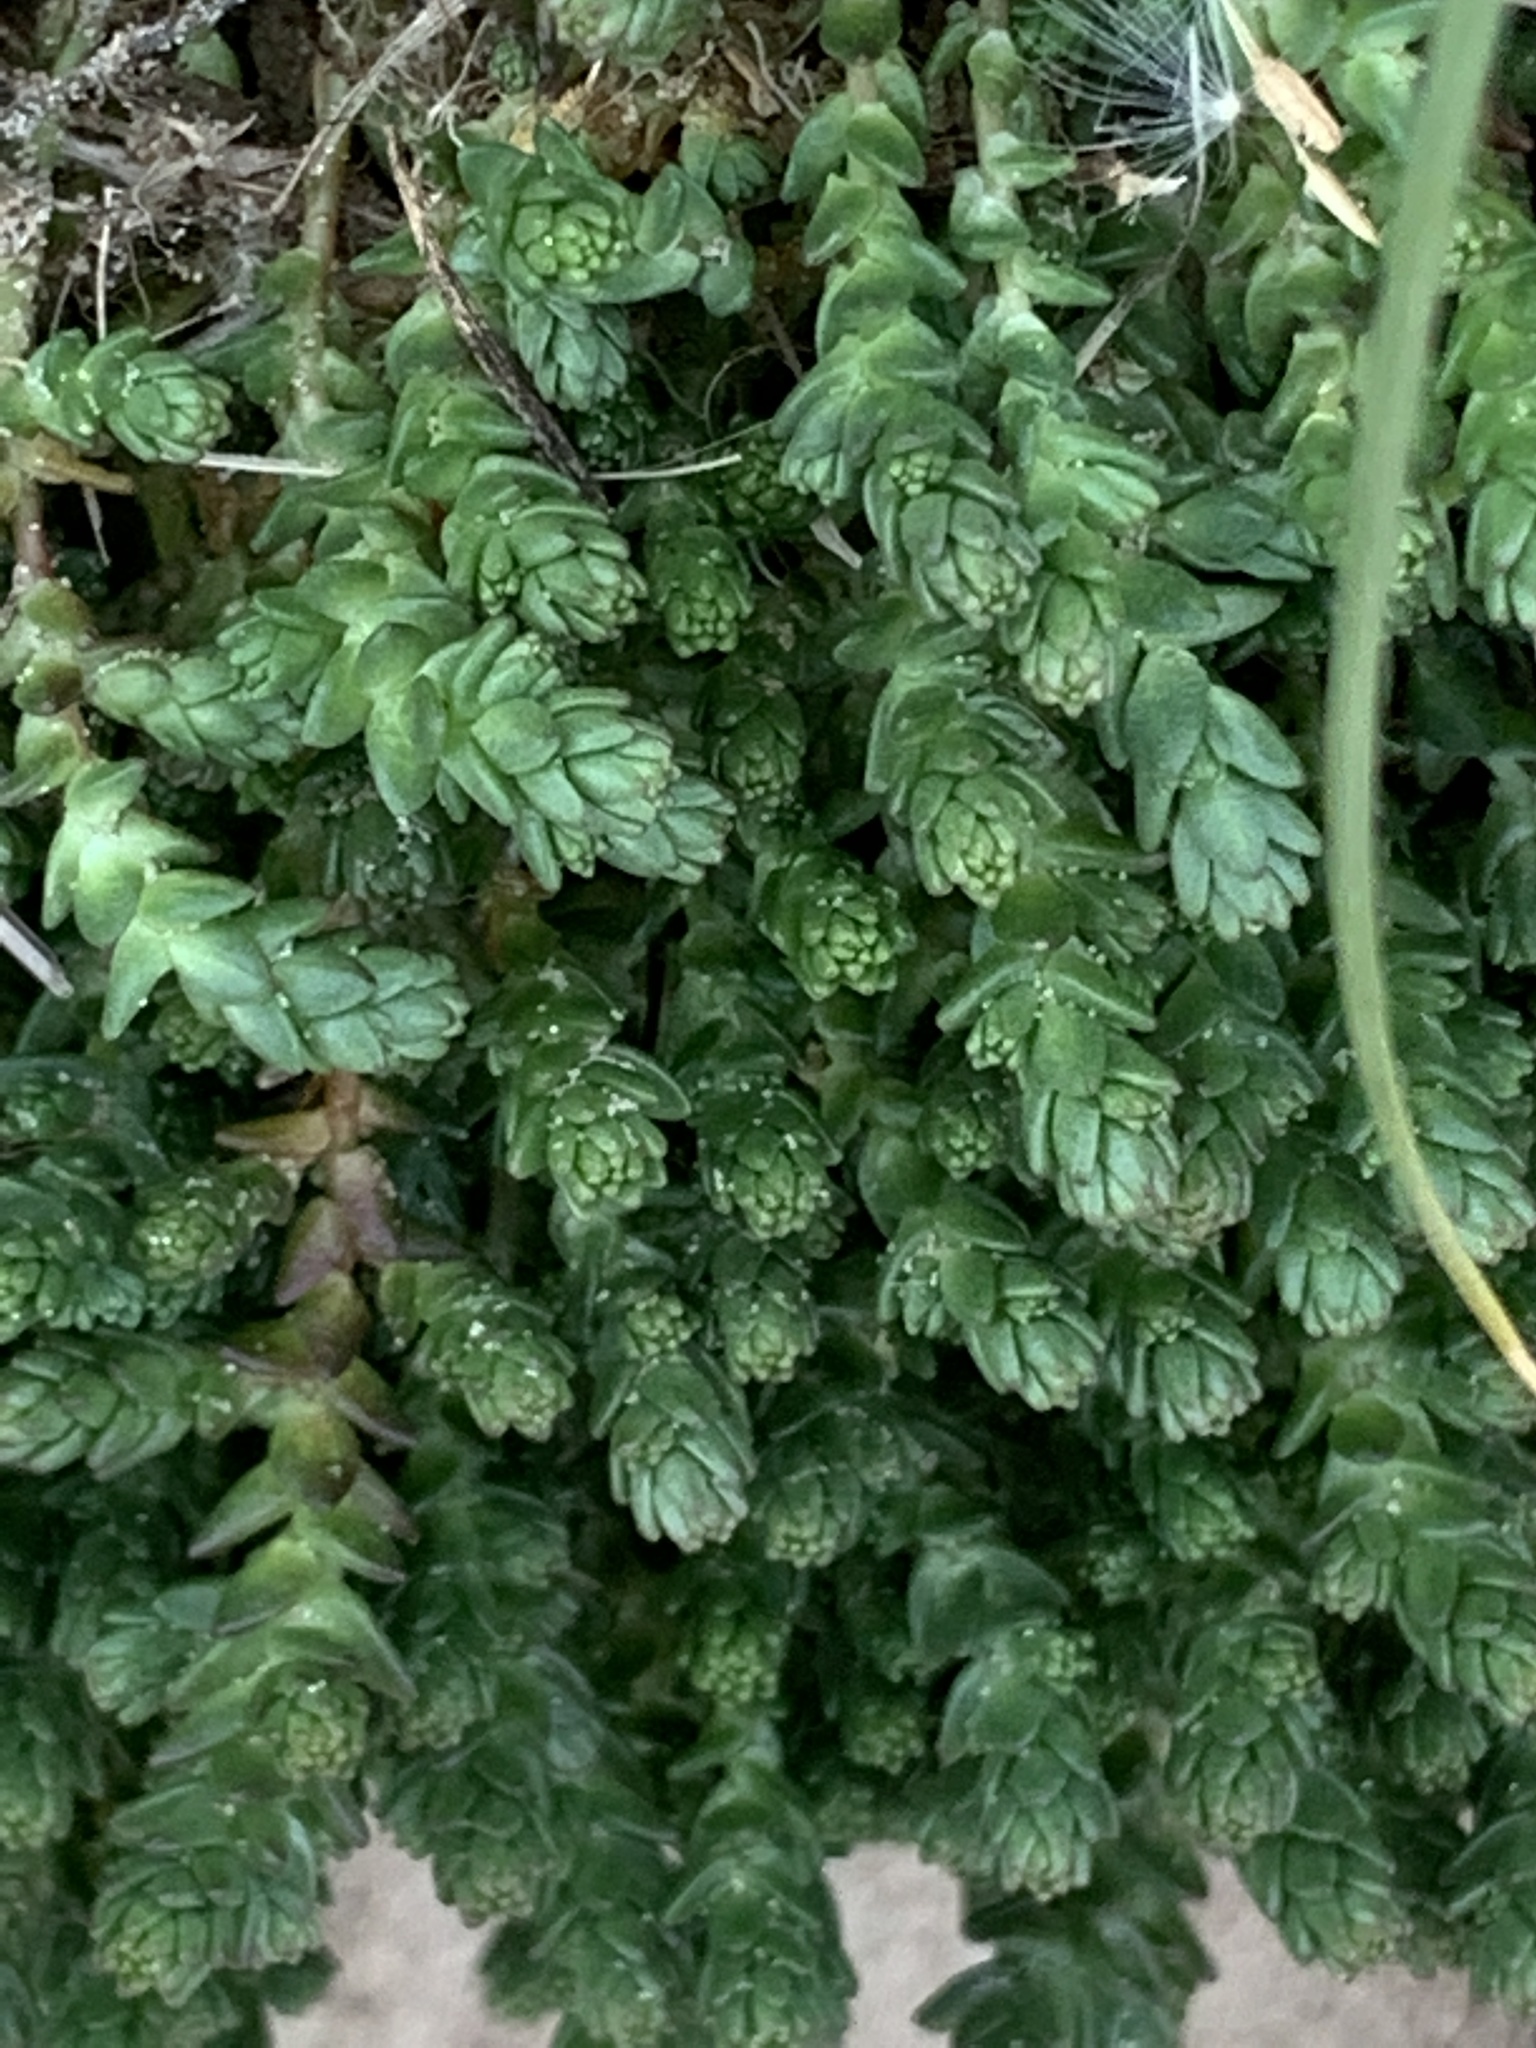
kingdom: Plantae
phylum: Tracheophyta
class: Magnoliopsida
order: Saxifragales
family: Crassulaceae
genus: Sedum
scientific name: Sedum acre
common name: Biting stonecrop
